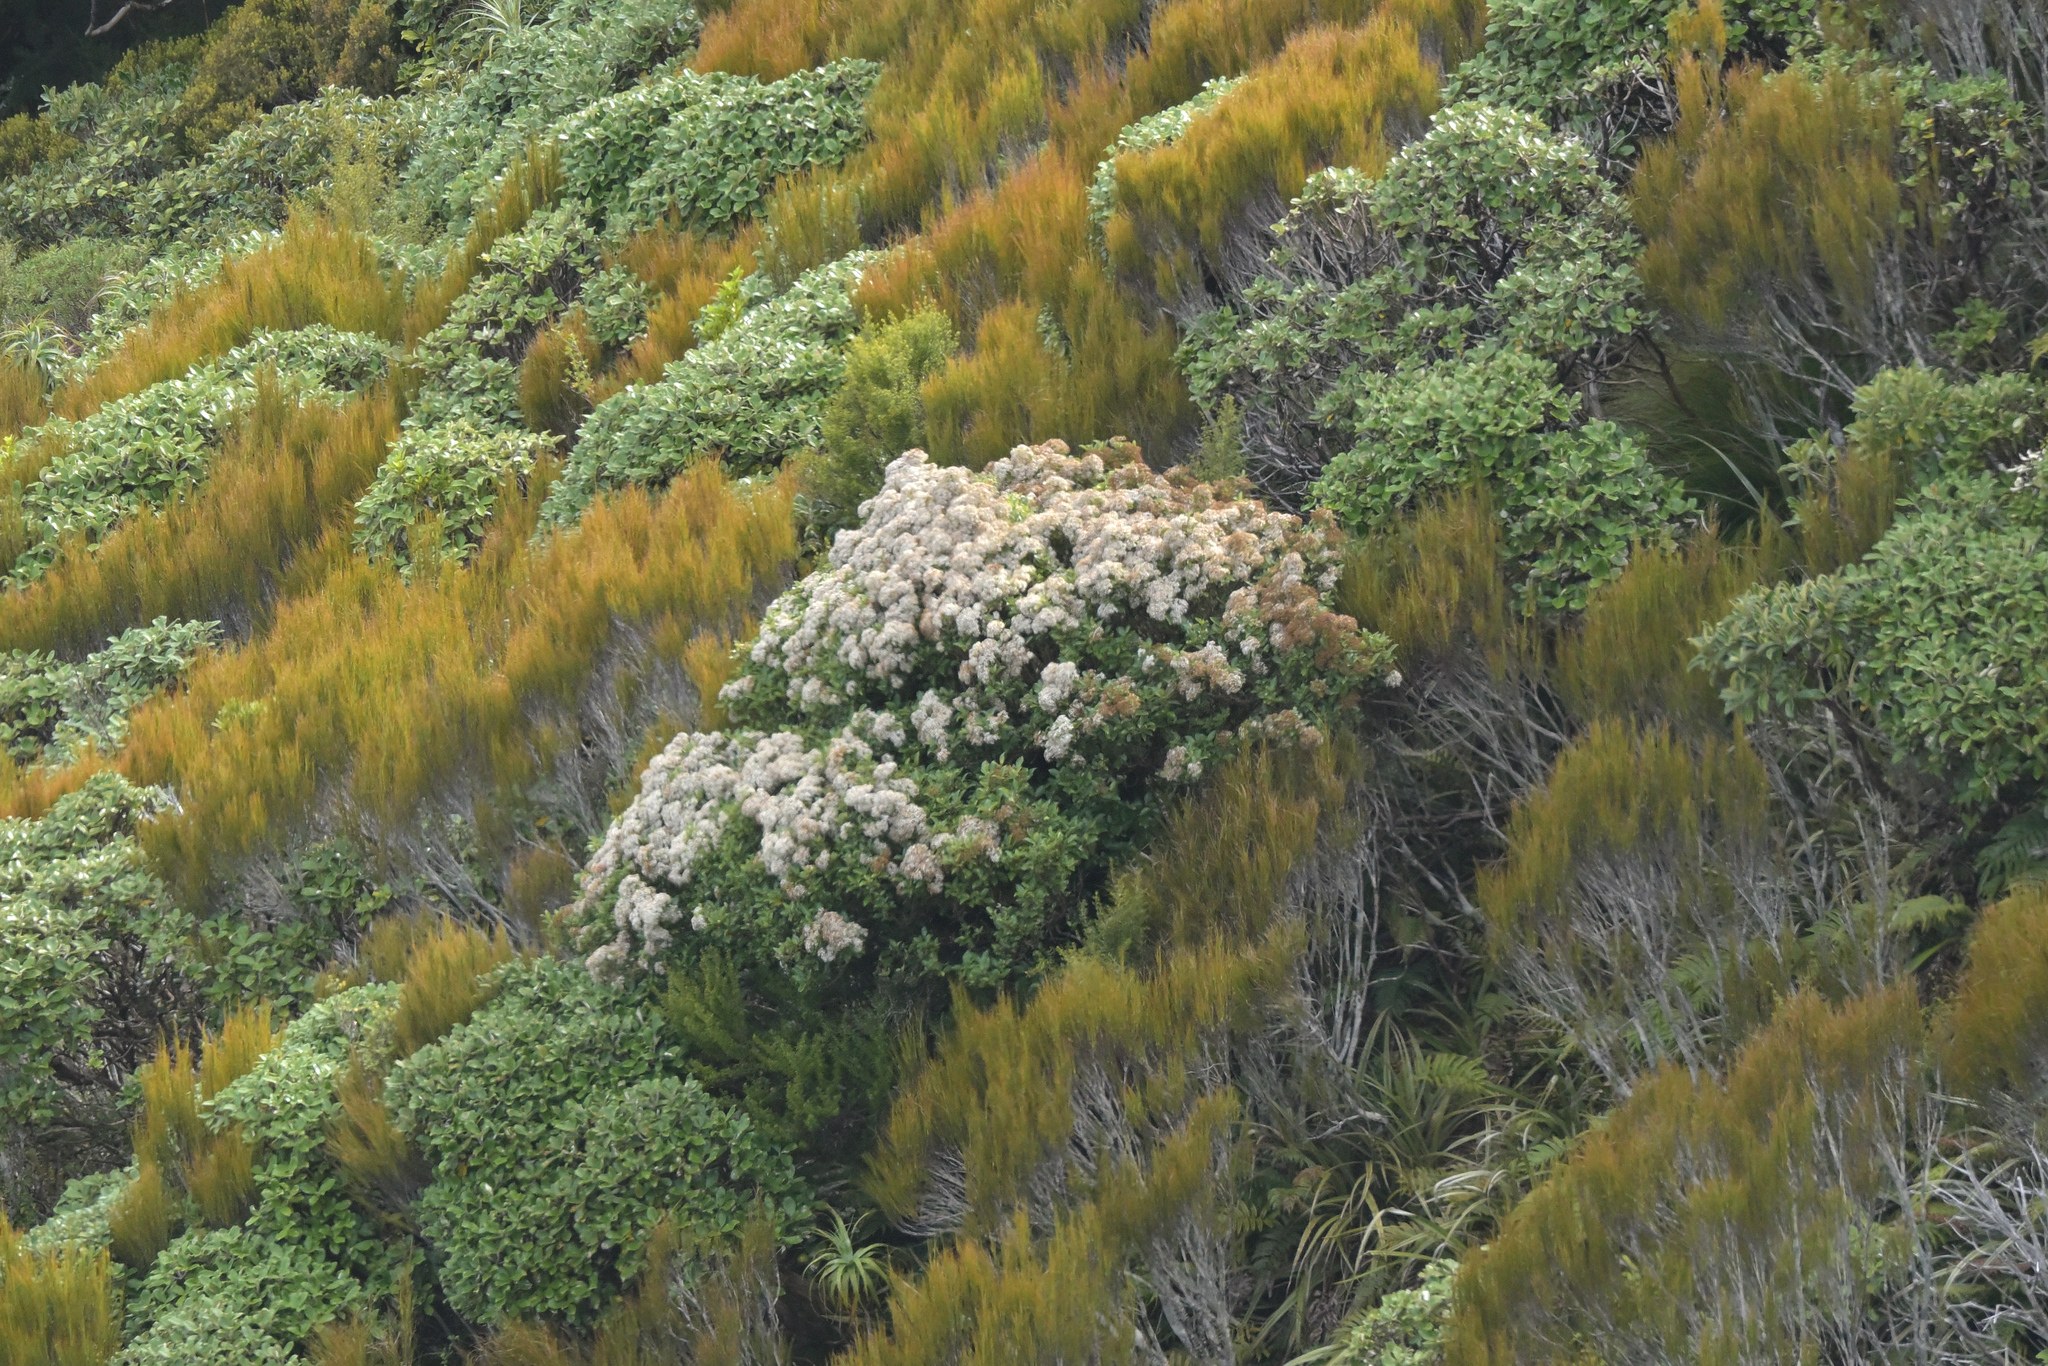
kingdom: Plantae
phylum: Tracheophyta
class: Magnoliopsida
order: Asterales
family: Asteraceae
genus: Olearia
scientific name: Olearia avicenniifolia
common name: Mangrove-leaf daisybush
